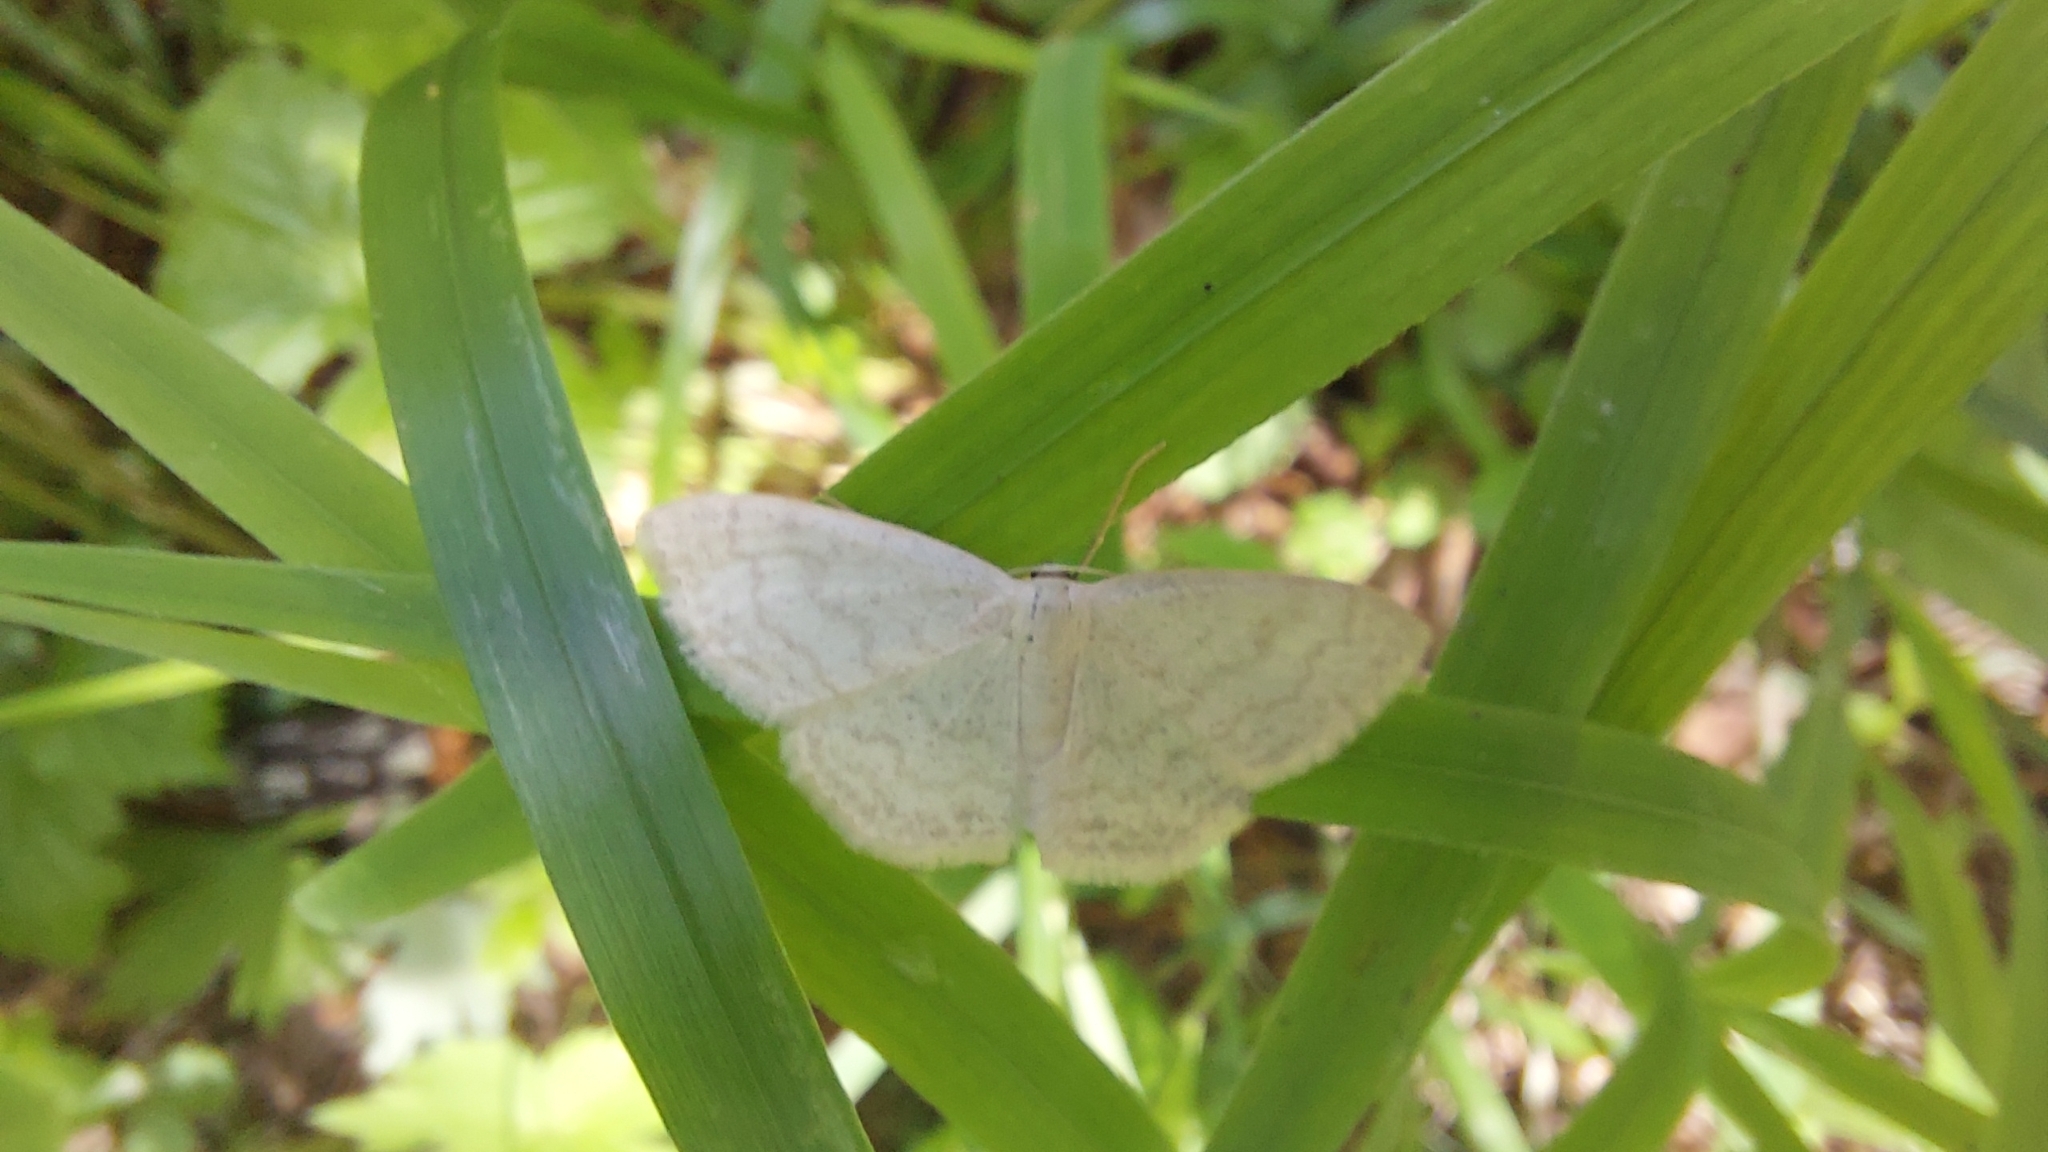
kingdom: Animalia
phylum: Arthropoda
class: Insecta
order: Lepidoptera
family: Geometridae
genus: Scopula
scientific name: Scopula floslactata
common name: Cream wave
